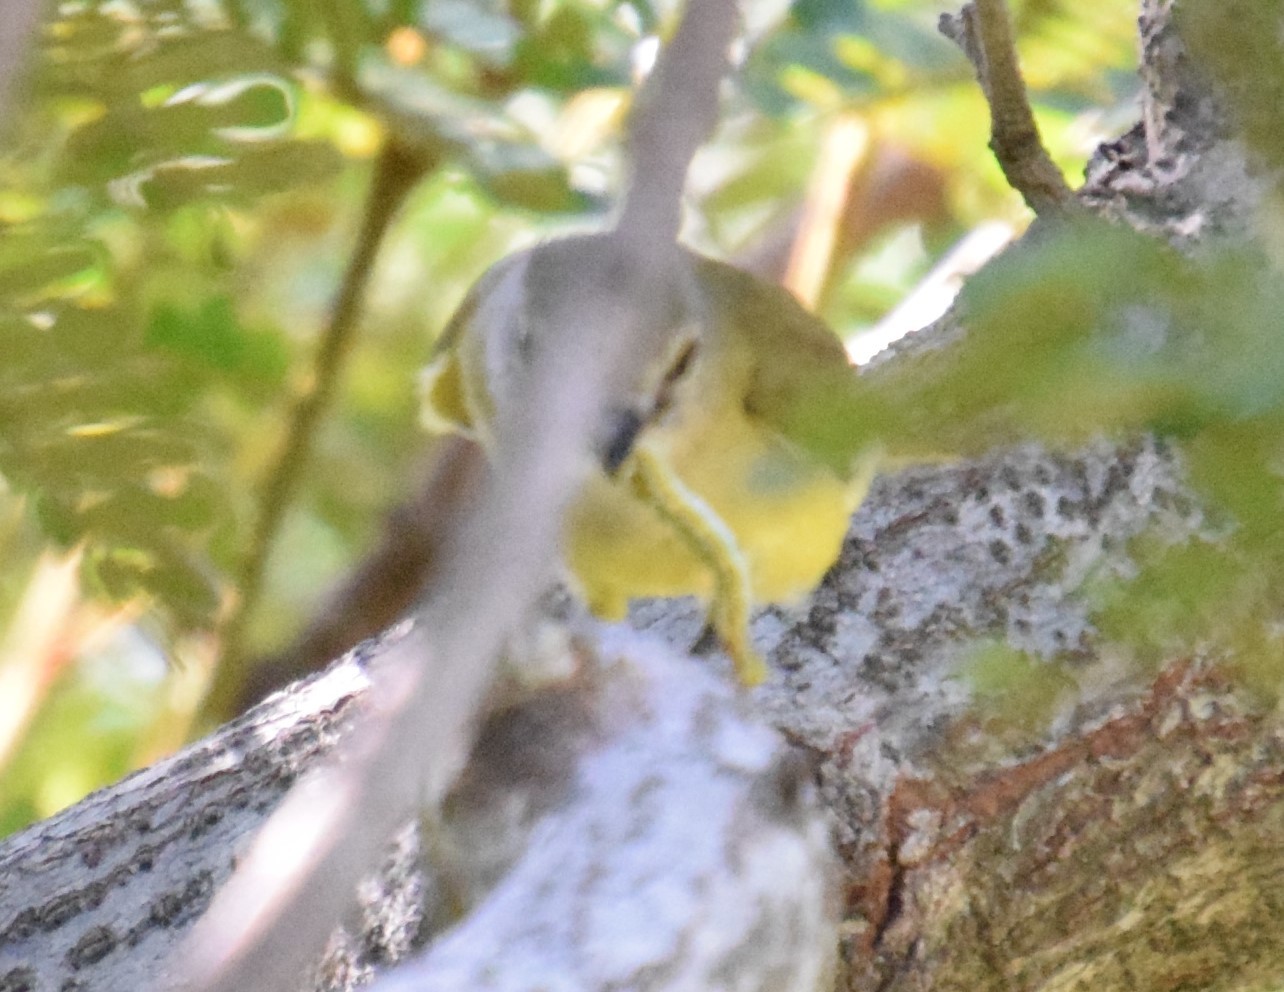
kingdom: Animalia
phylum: Chordata
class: Aves
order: Passeriformes
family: Petroicidae
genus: Microeca
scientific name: Microeca flavigaster
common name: Lemon-bellied flyrobin
